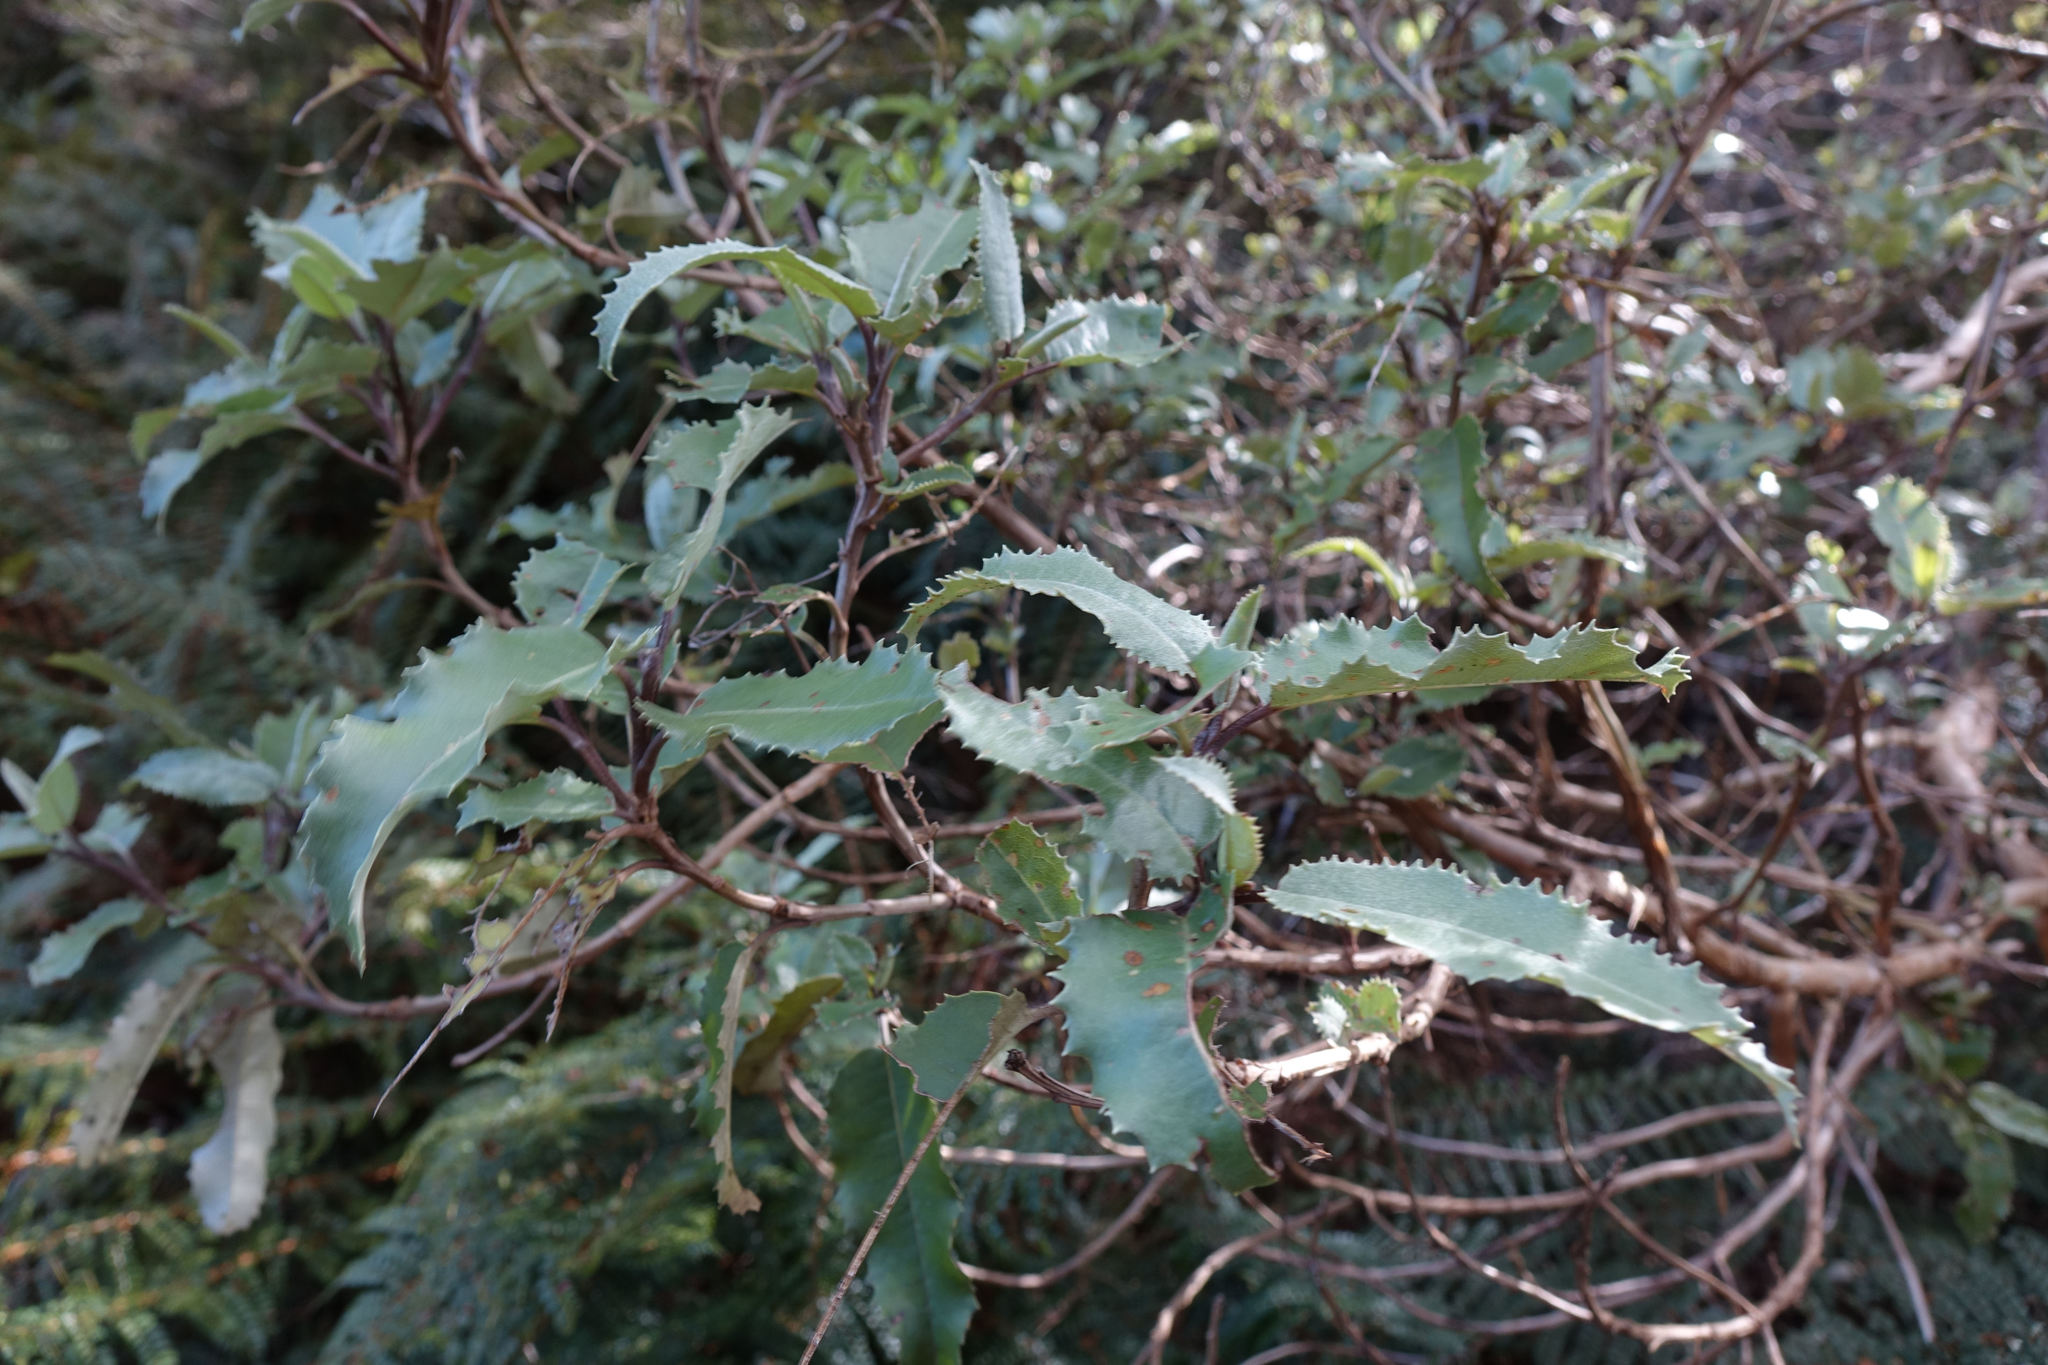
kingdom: Plantae
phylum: Tracheophyta
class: Magnoliopsida
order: Asterales
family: Asteraceae
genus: Olearia
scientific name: Olearia ilicifolia
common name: Maori-holly
